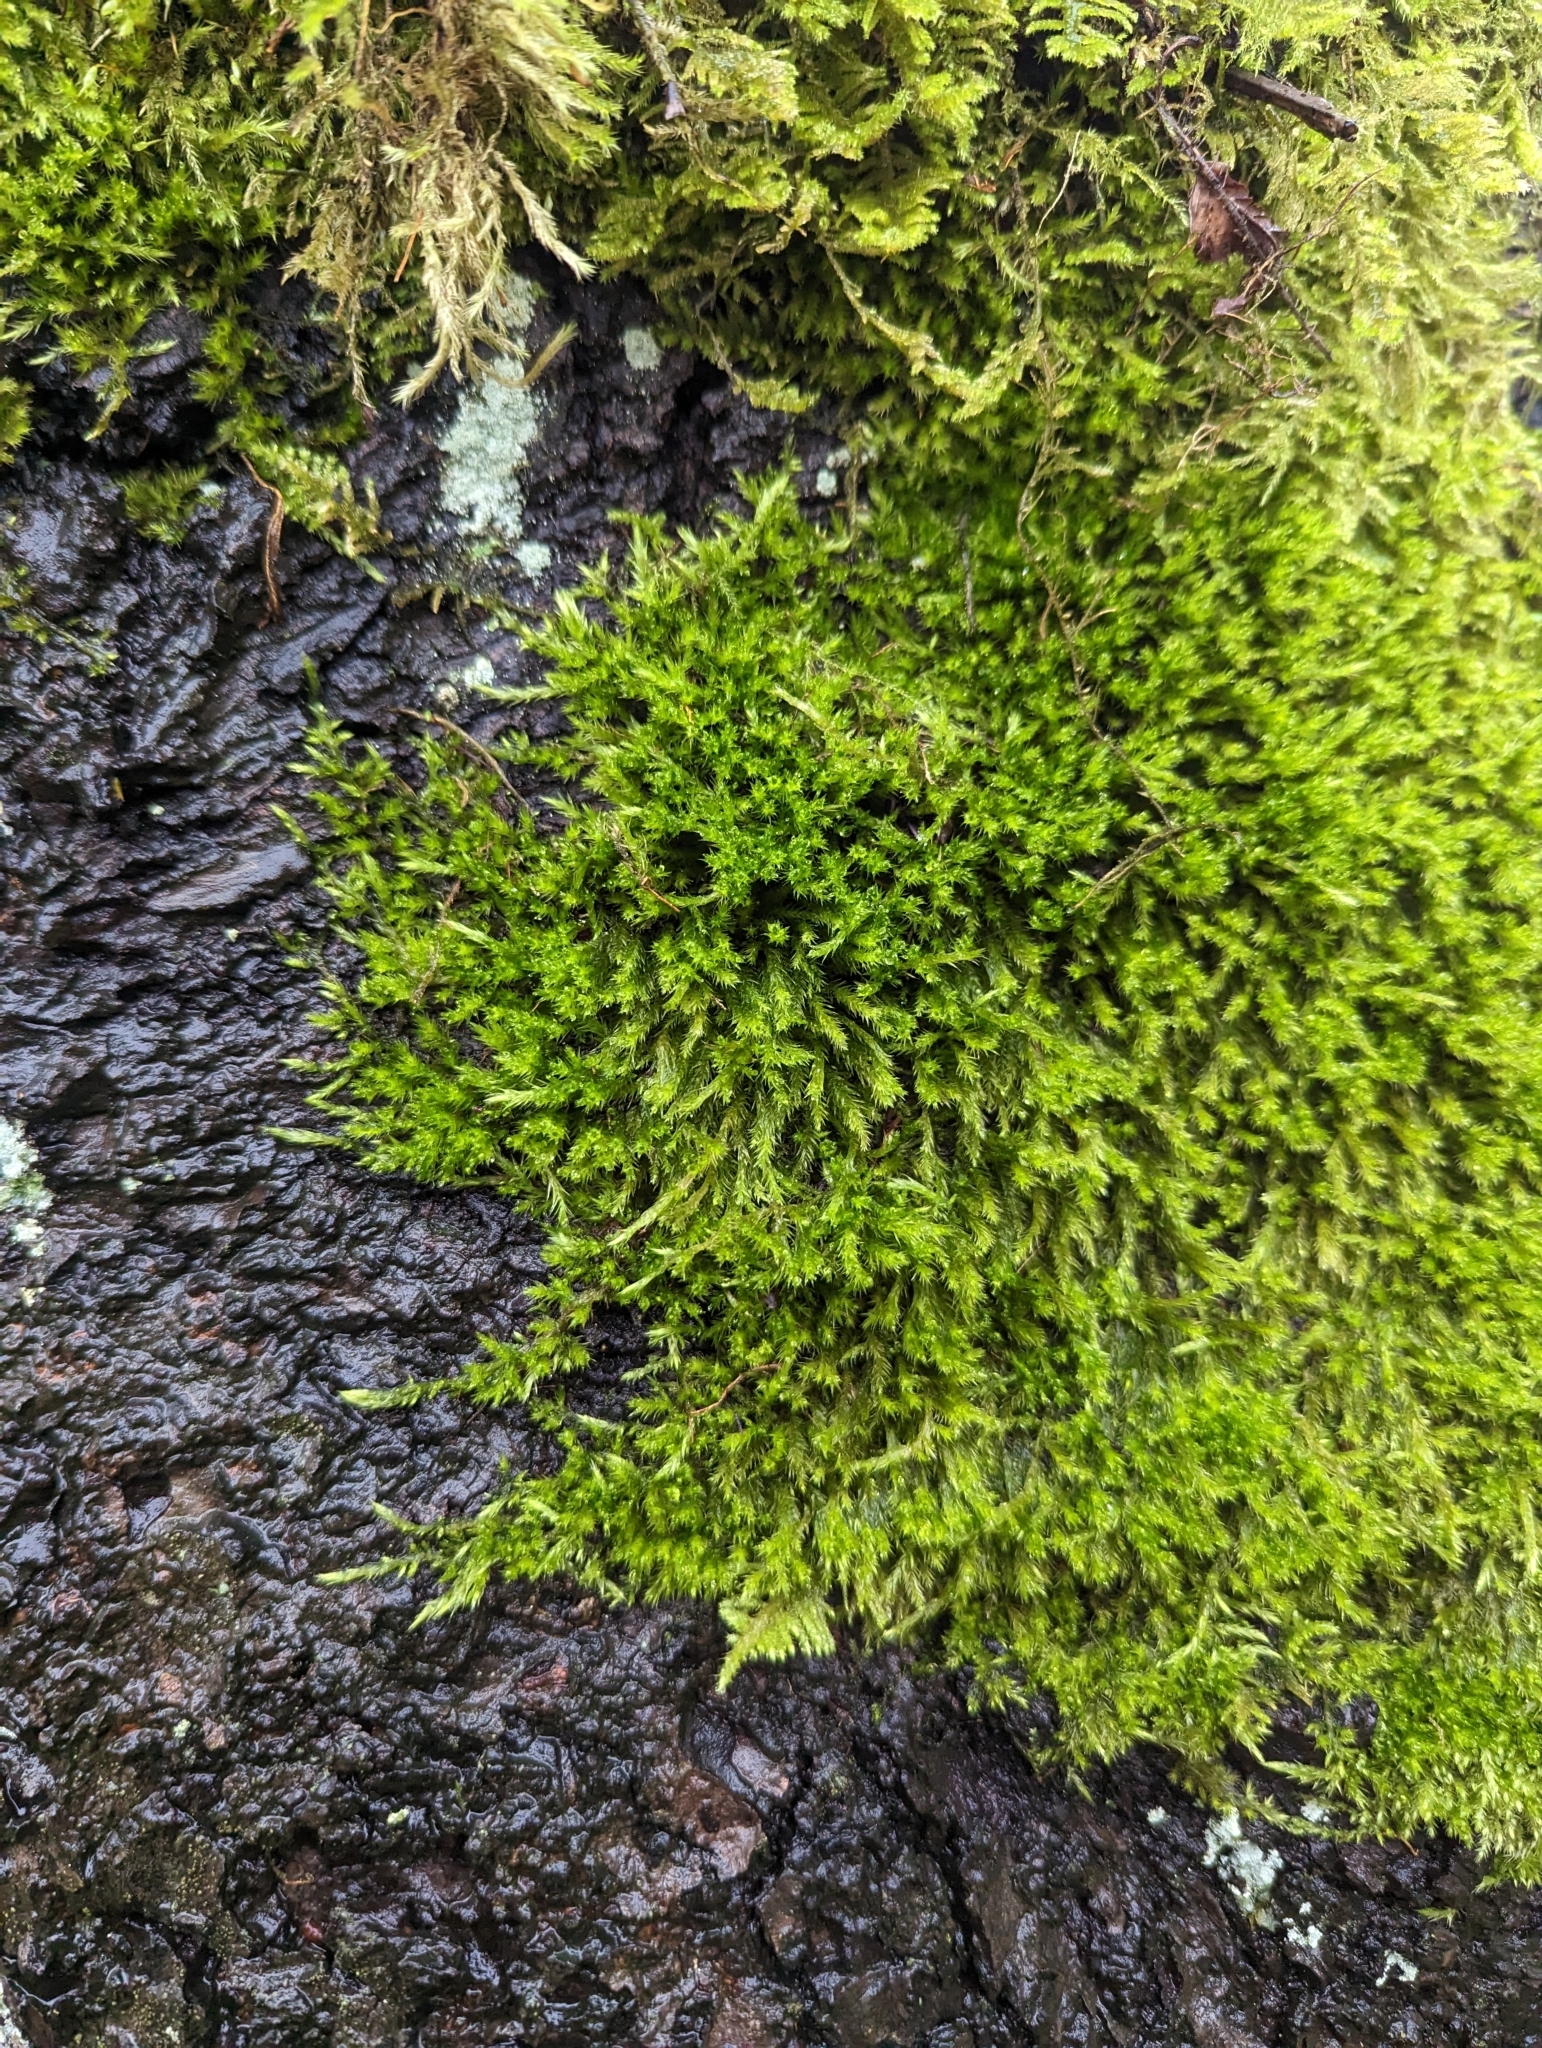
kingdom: Plantae
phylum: Bryophyta
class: Bryopsida
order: Hypnales
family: Brachytheciaceae
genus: Homalothecium
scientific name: Homalothecium nuttallii
